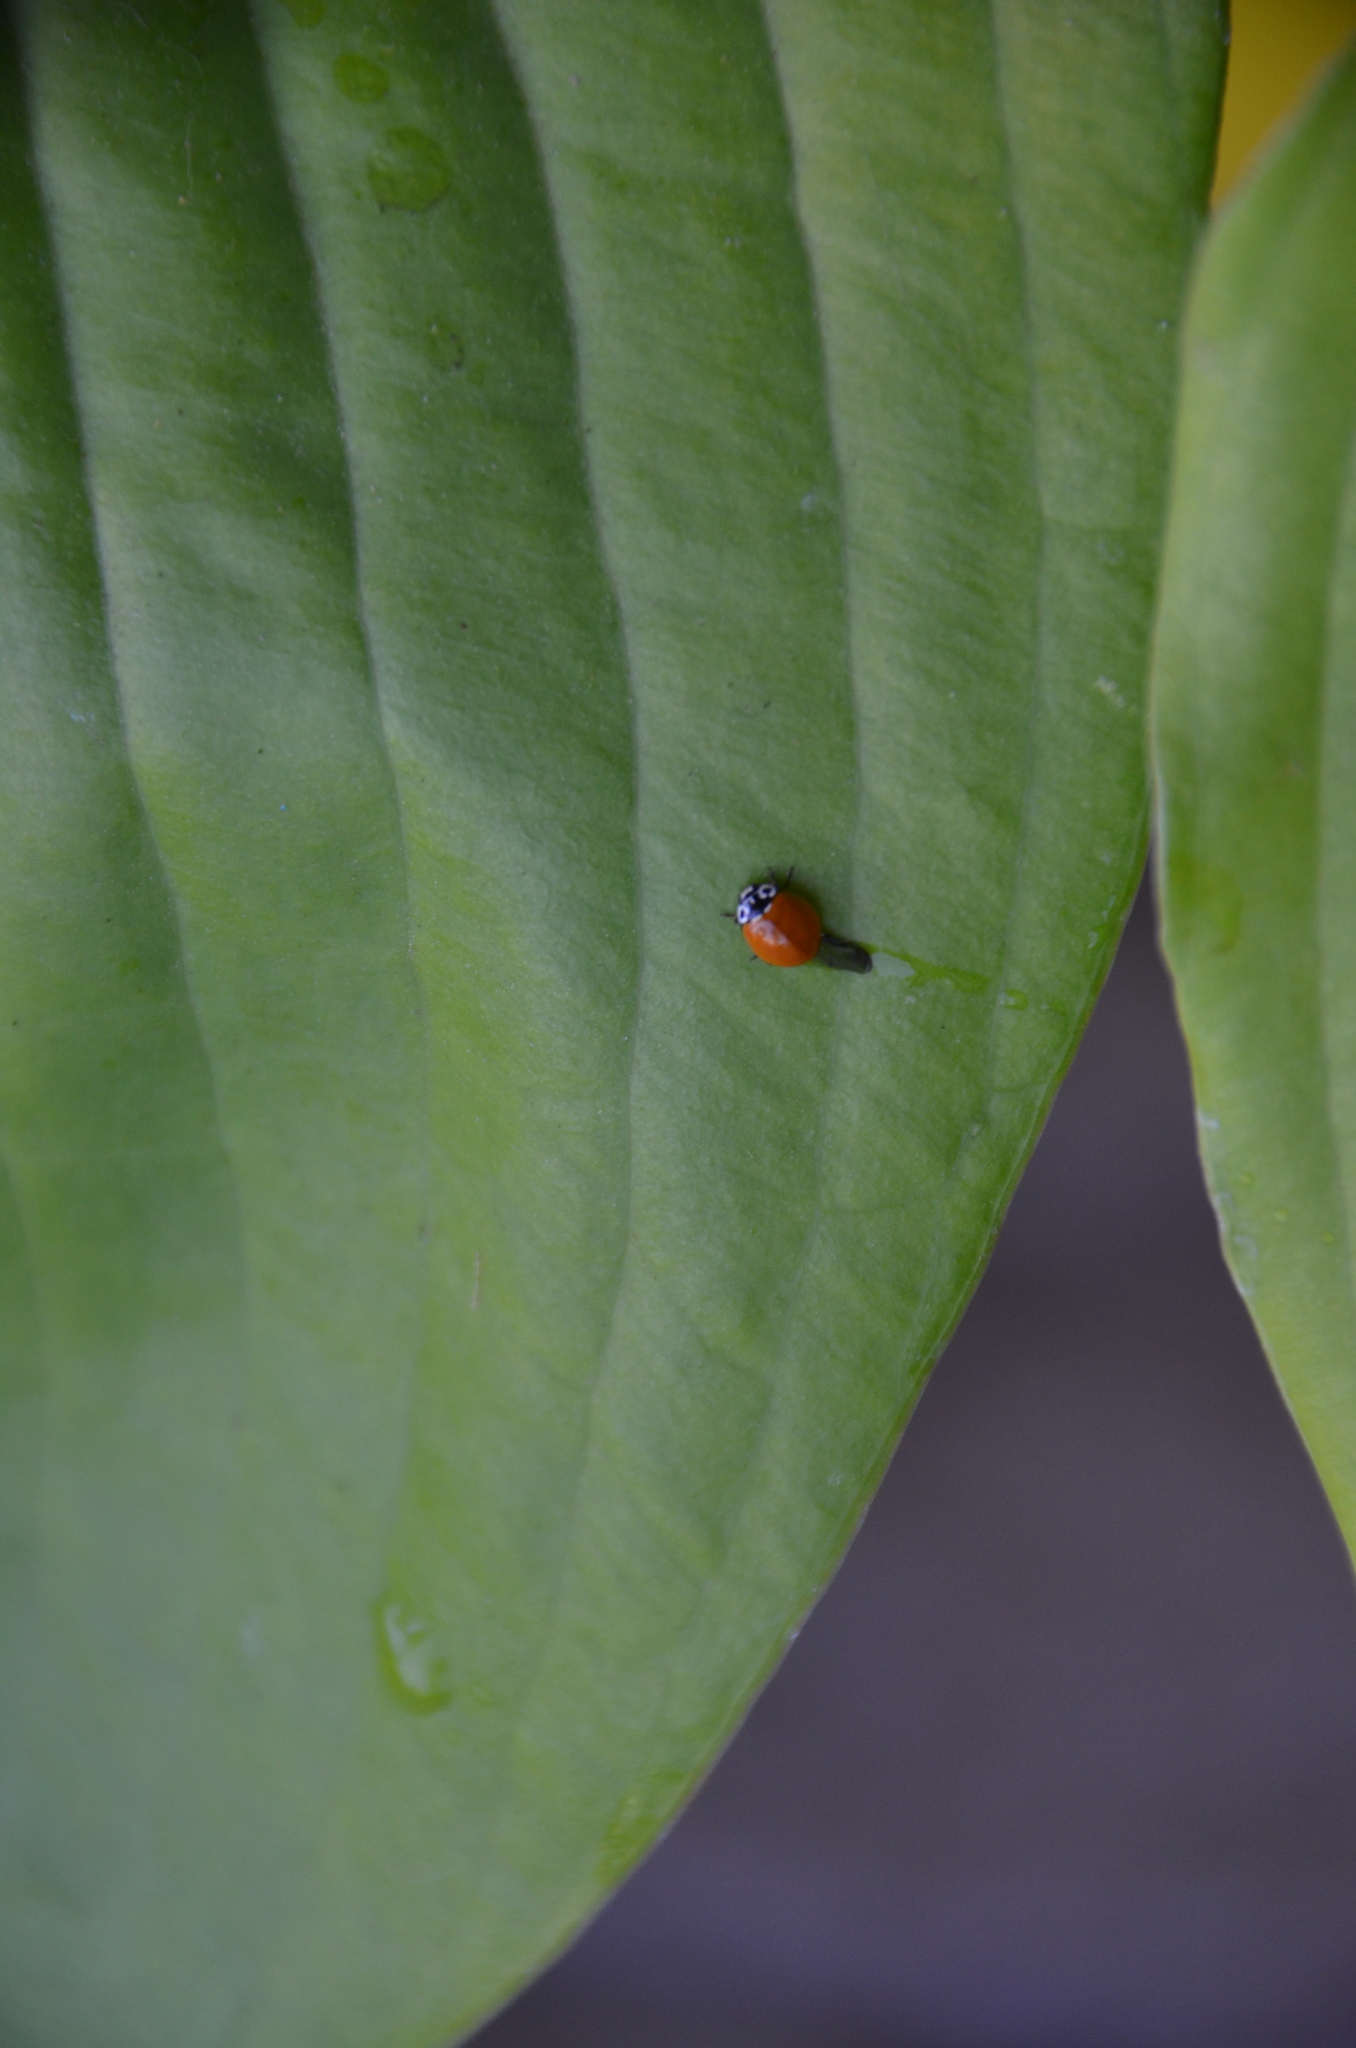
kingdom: Animalia
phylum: Arthropoda
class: Insecta
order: Coleoptera
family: Coccinellidae
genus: Cycloneda
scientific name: Cycloneda polita
